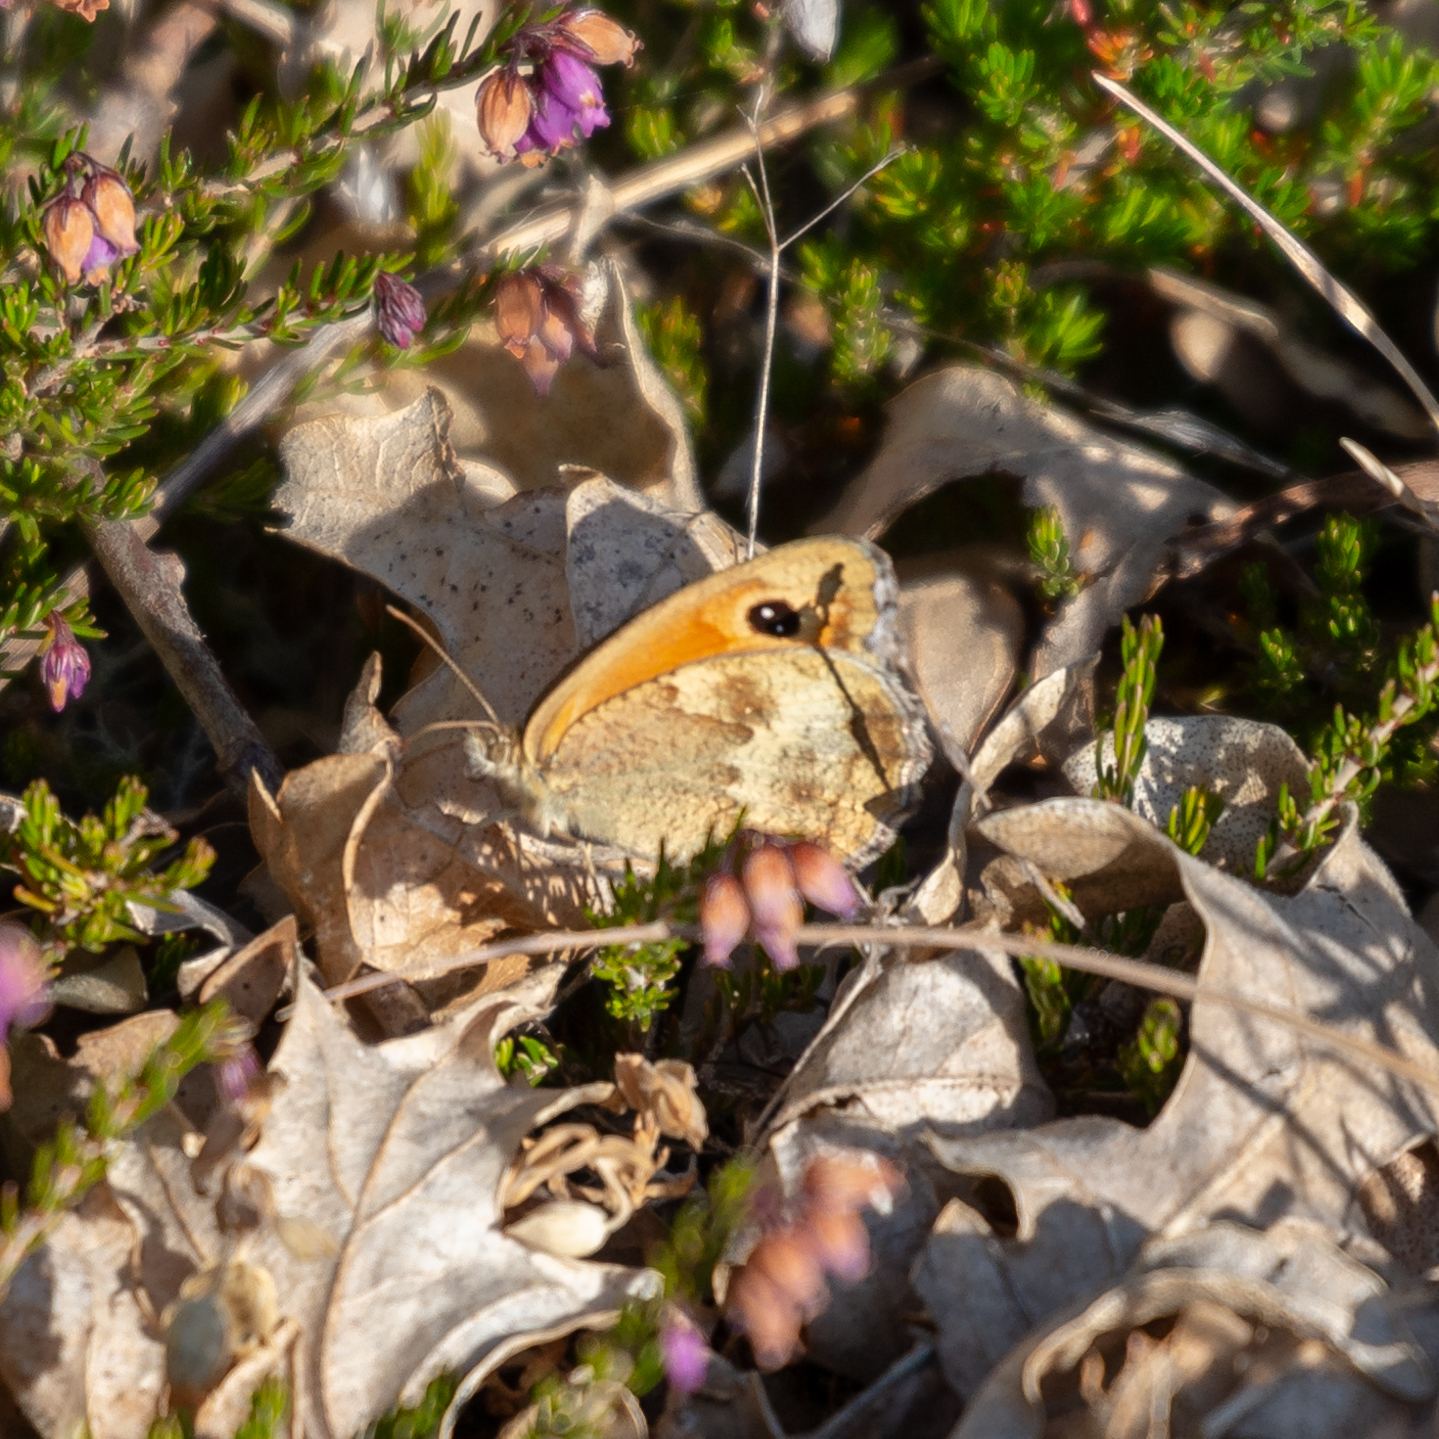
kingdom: Animalia
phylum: Arthropoda
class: Insecta
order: Lepidoptera
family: Nymphalidae
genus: Pyronia
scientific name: Pyronia tithonus
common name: Gatekeeper
